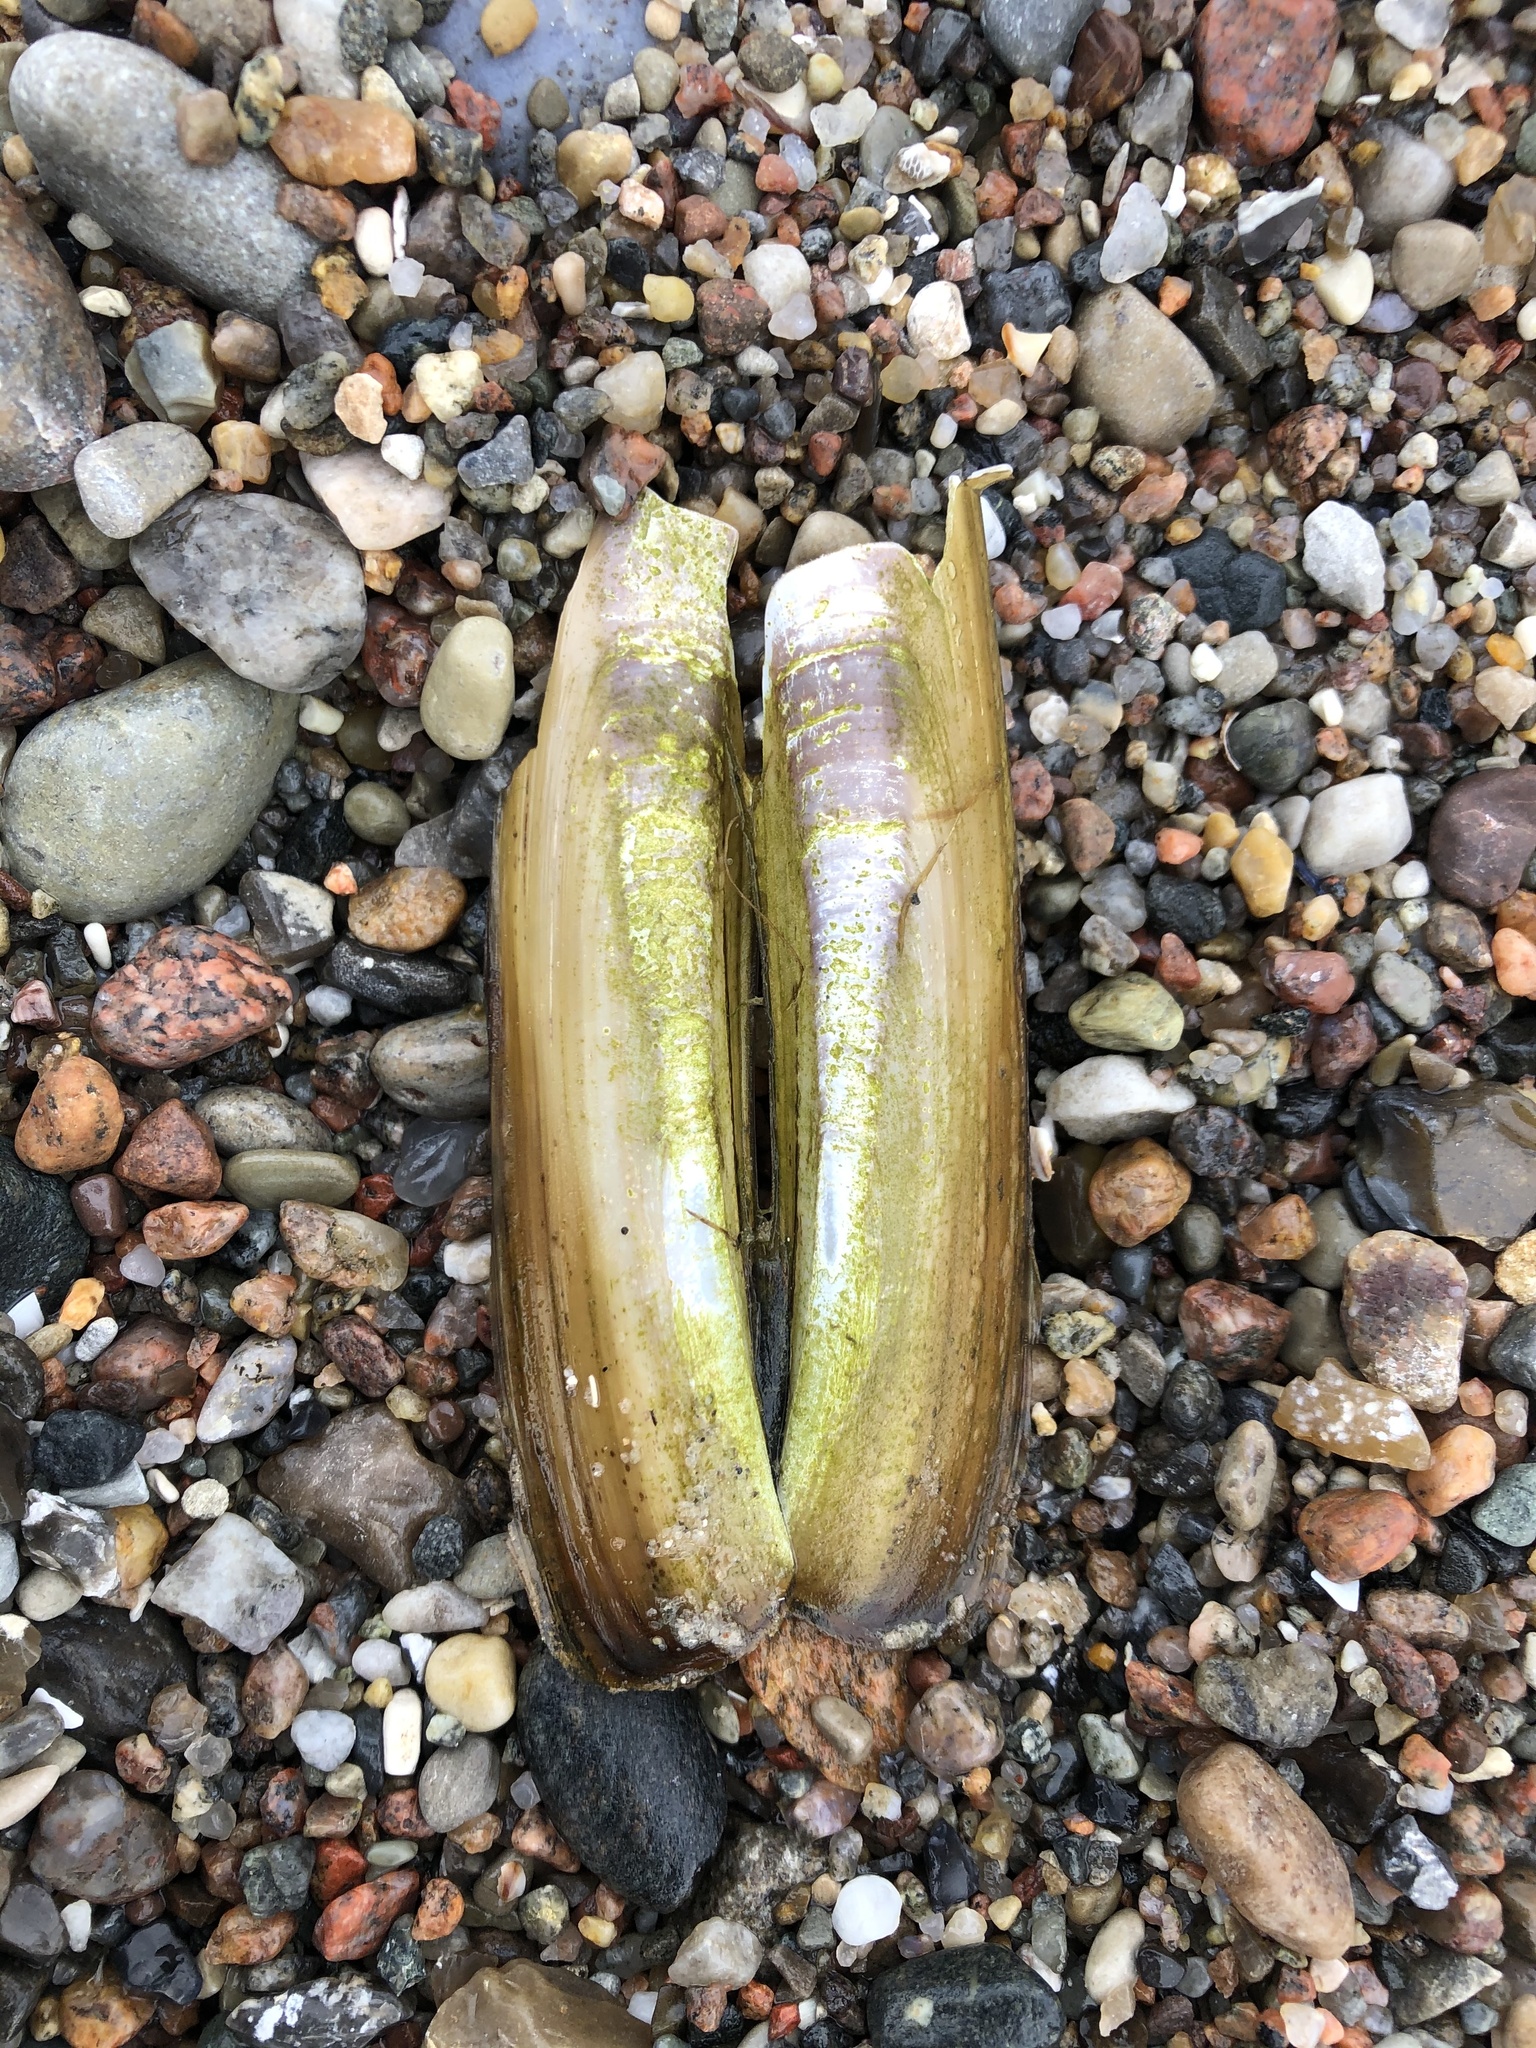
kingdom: Animalia
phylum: Mollusca
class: Bivalvia
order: Adapedonta
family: Pharidae
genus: Ensis
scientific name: Ensis leei
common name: American jack knife clam
